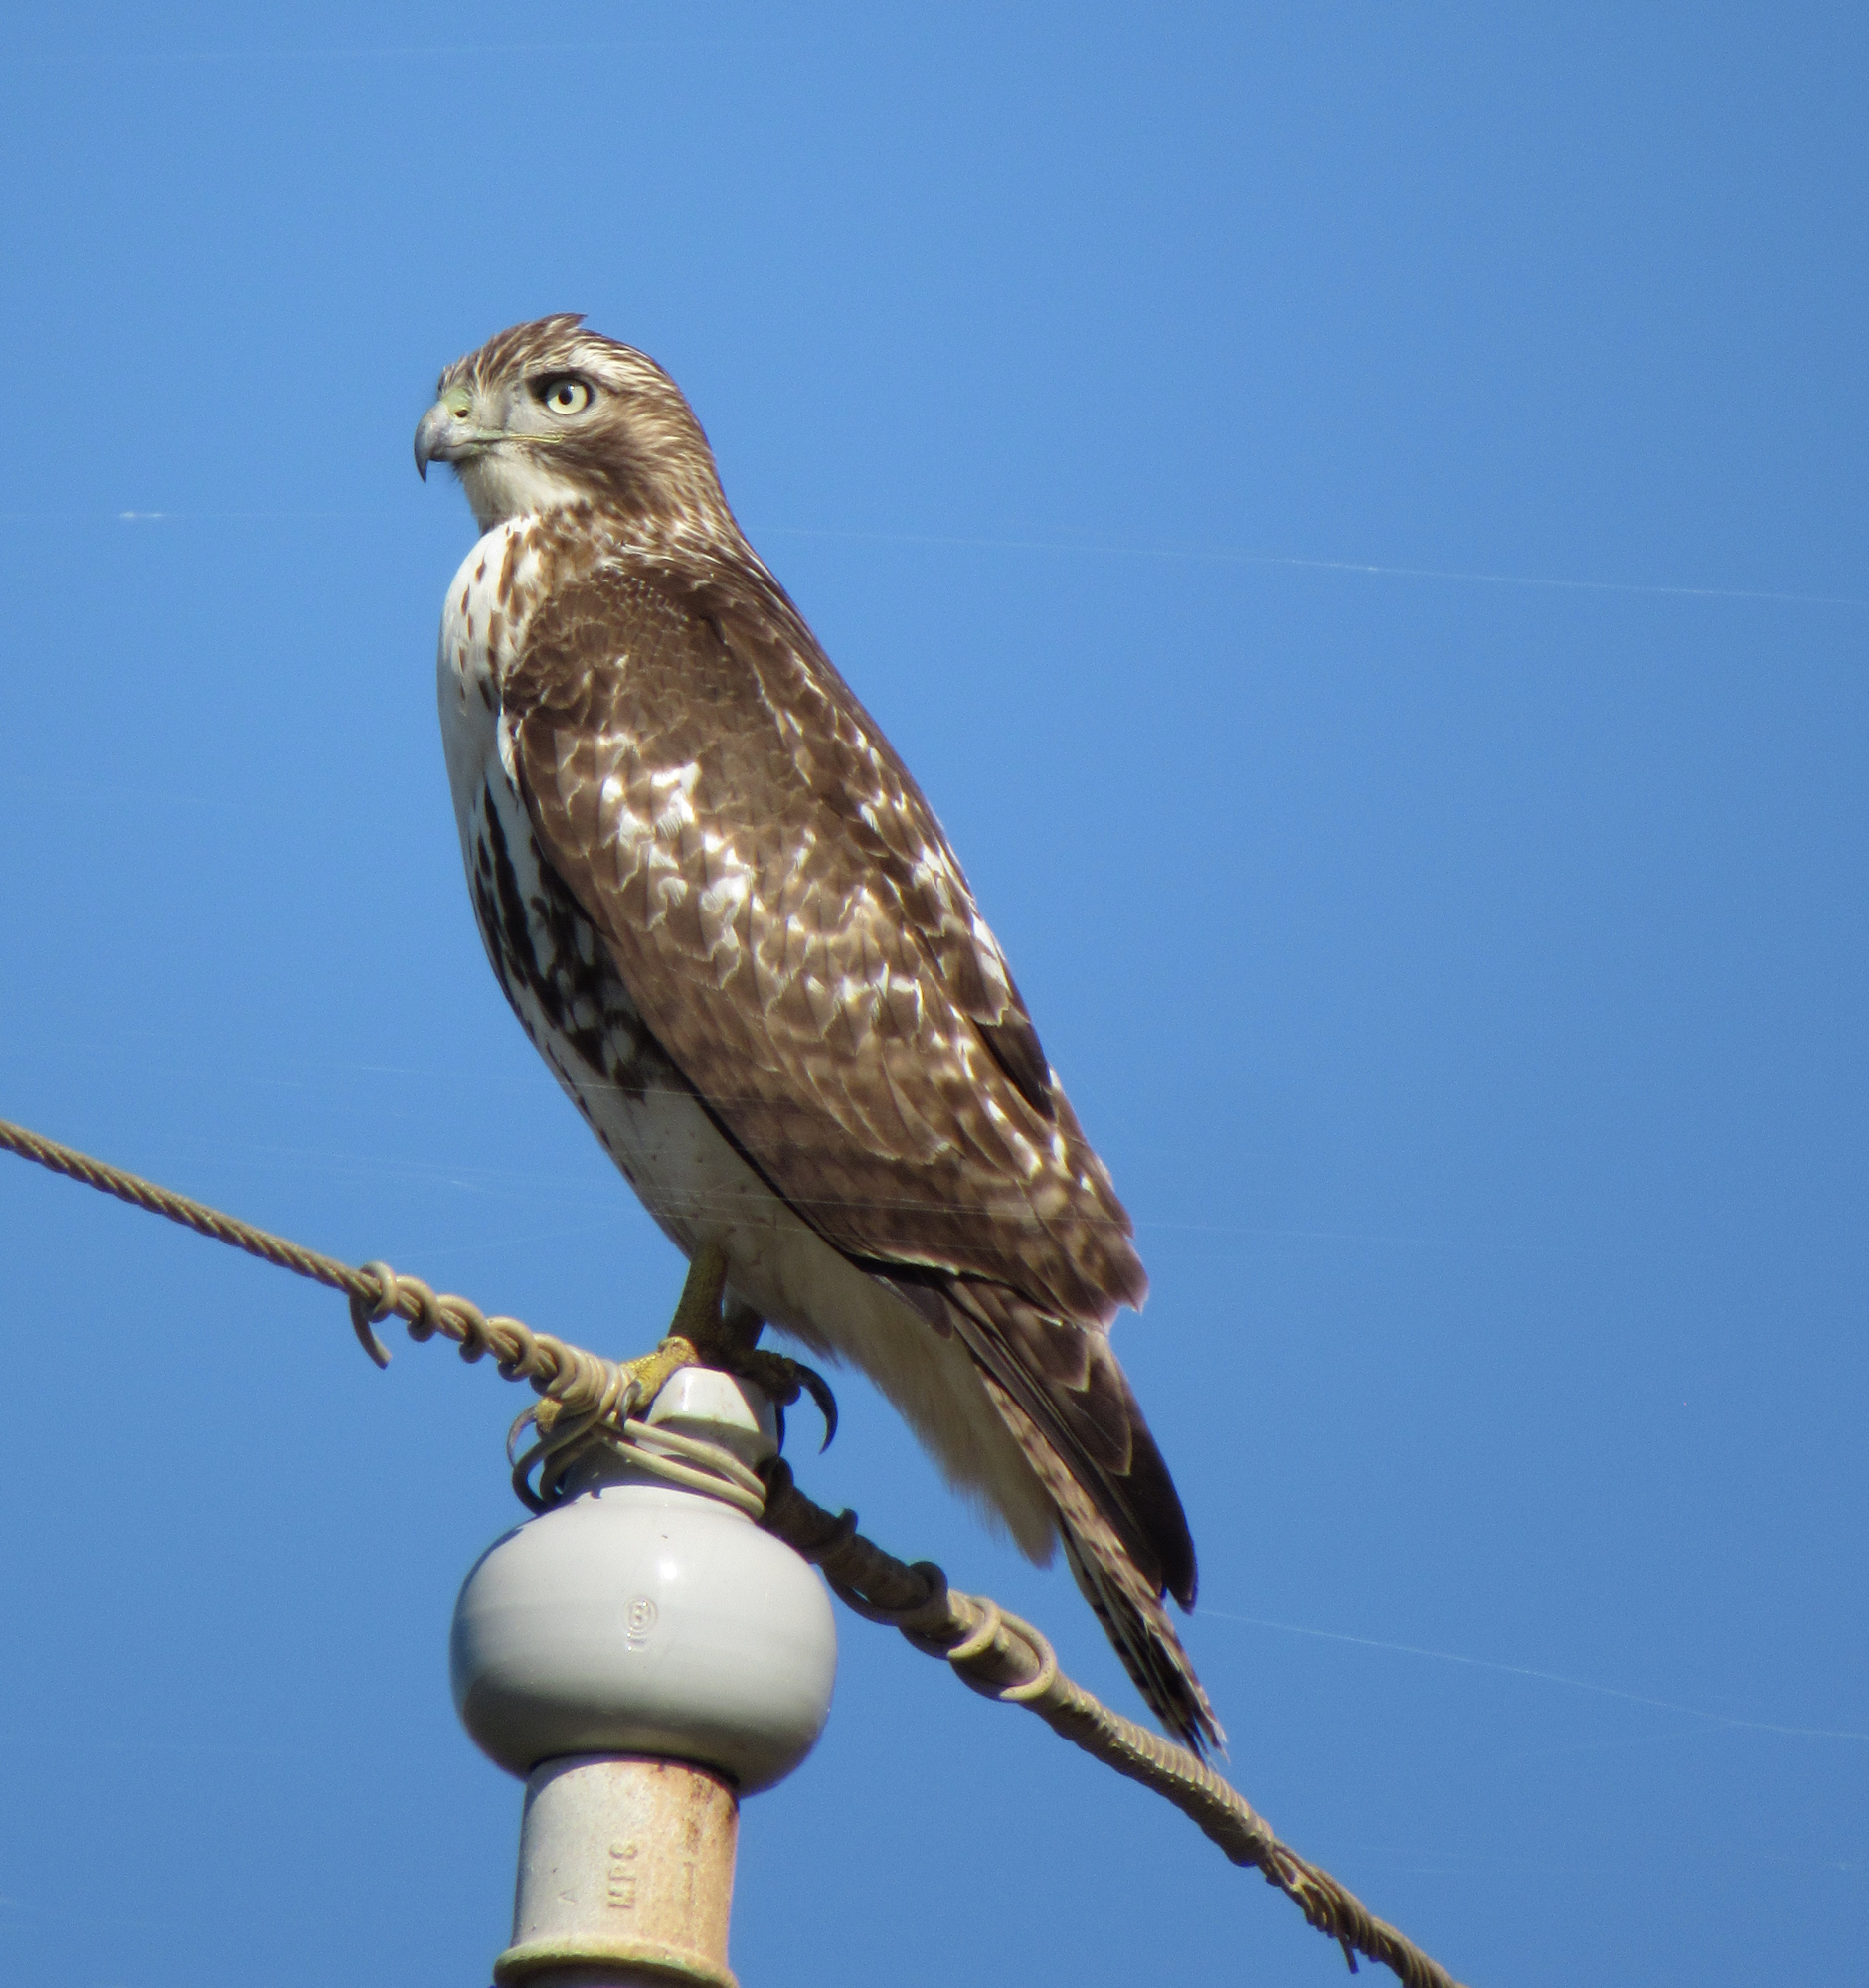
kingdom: Animalia
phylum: Chordata
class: Aves
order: Accipitriformes
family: Accipitridae
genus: Buteo
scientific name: Buteo jamaicensis
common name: Red-tailed hawk
